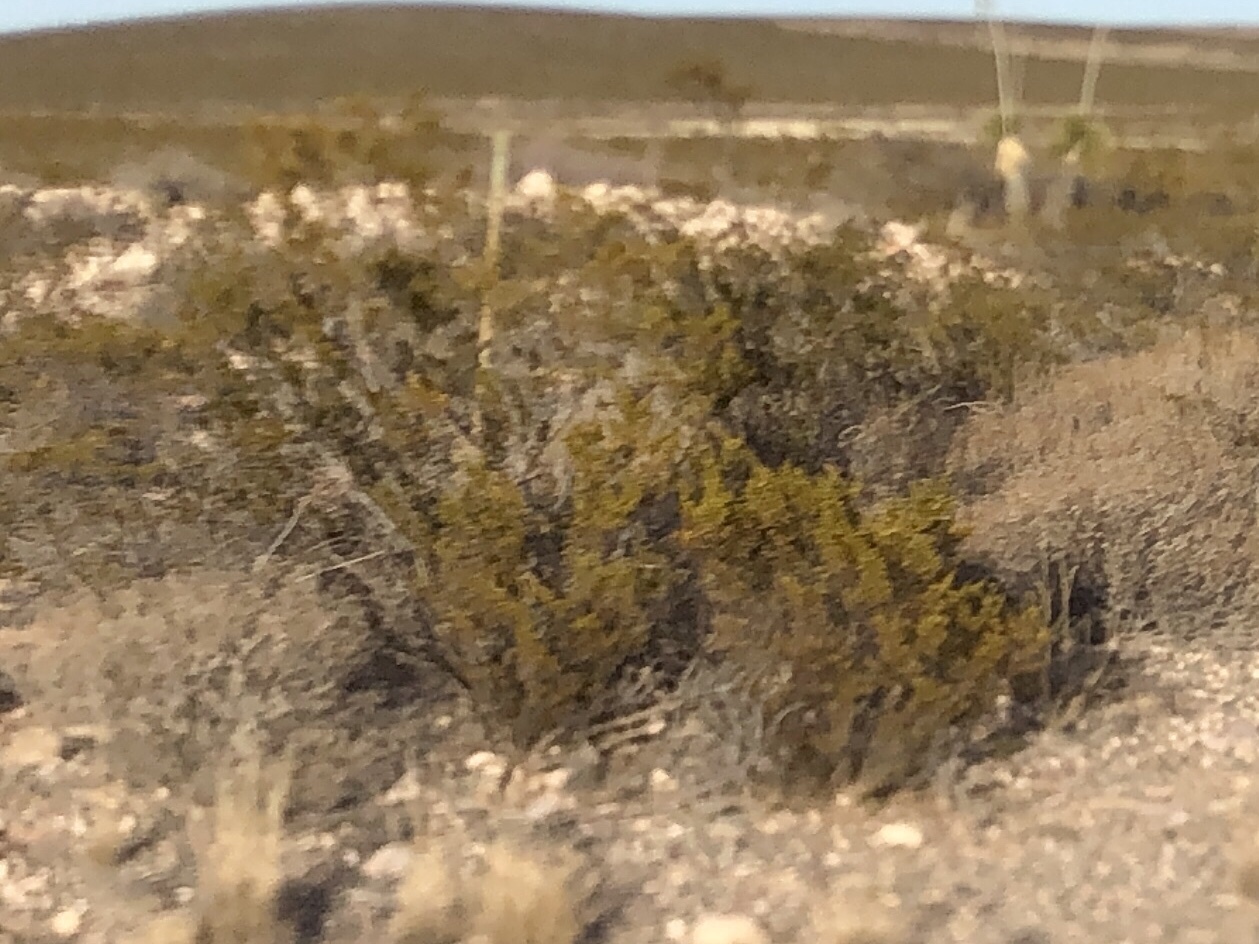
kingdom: Plantae
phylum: Tracheophyta
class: Magnoliopsida
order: Zygophyllales
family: Zygophyllaceae
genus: Larrea
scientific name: Larrea tridentata
